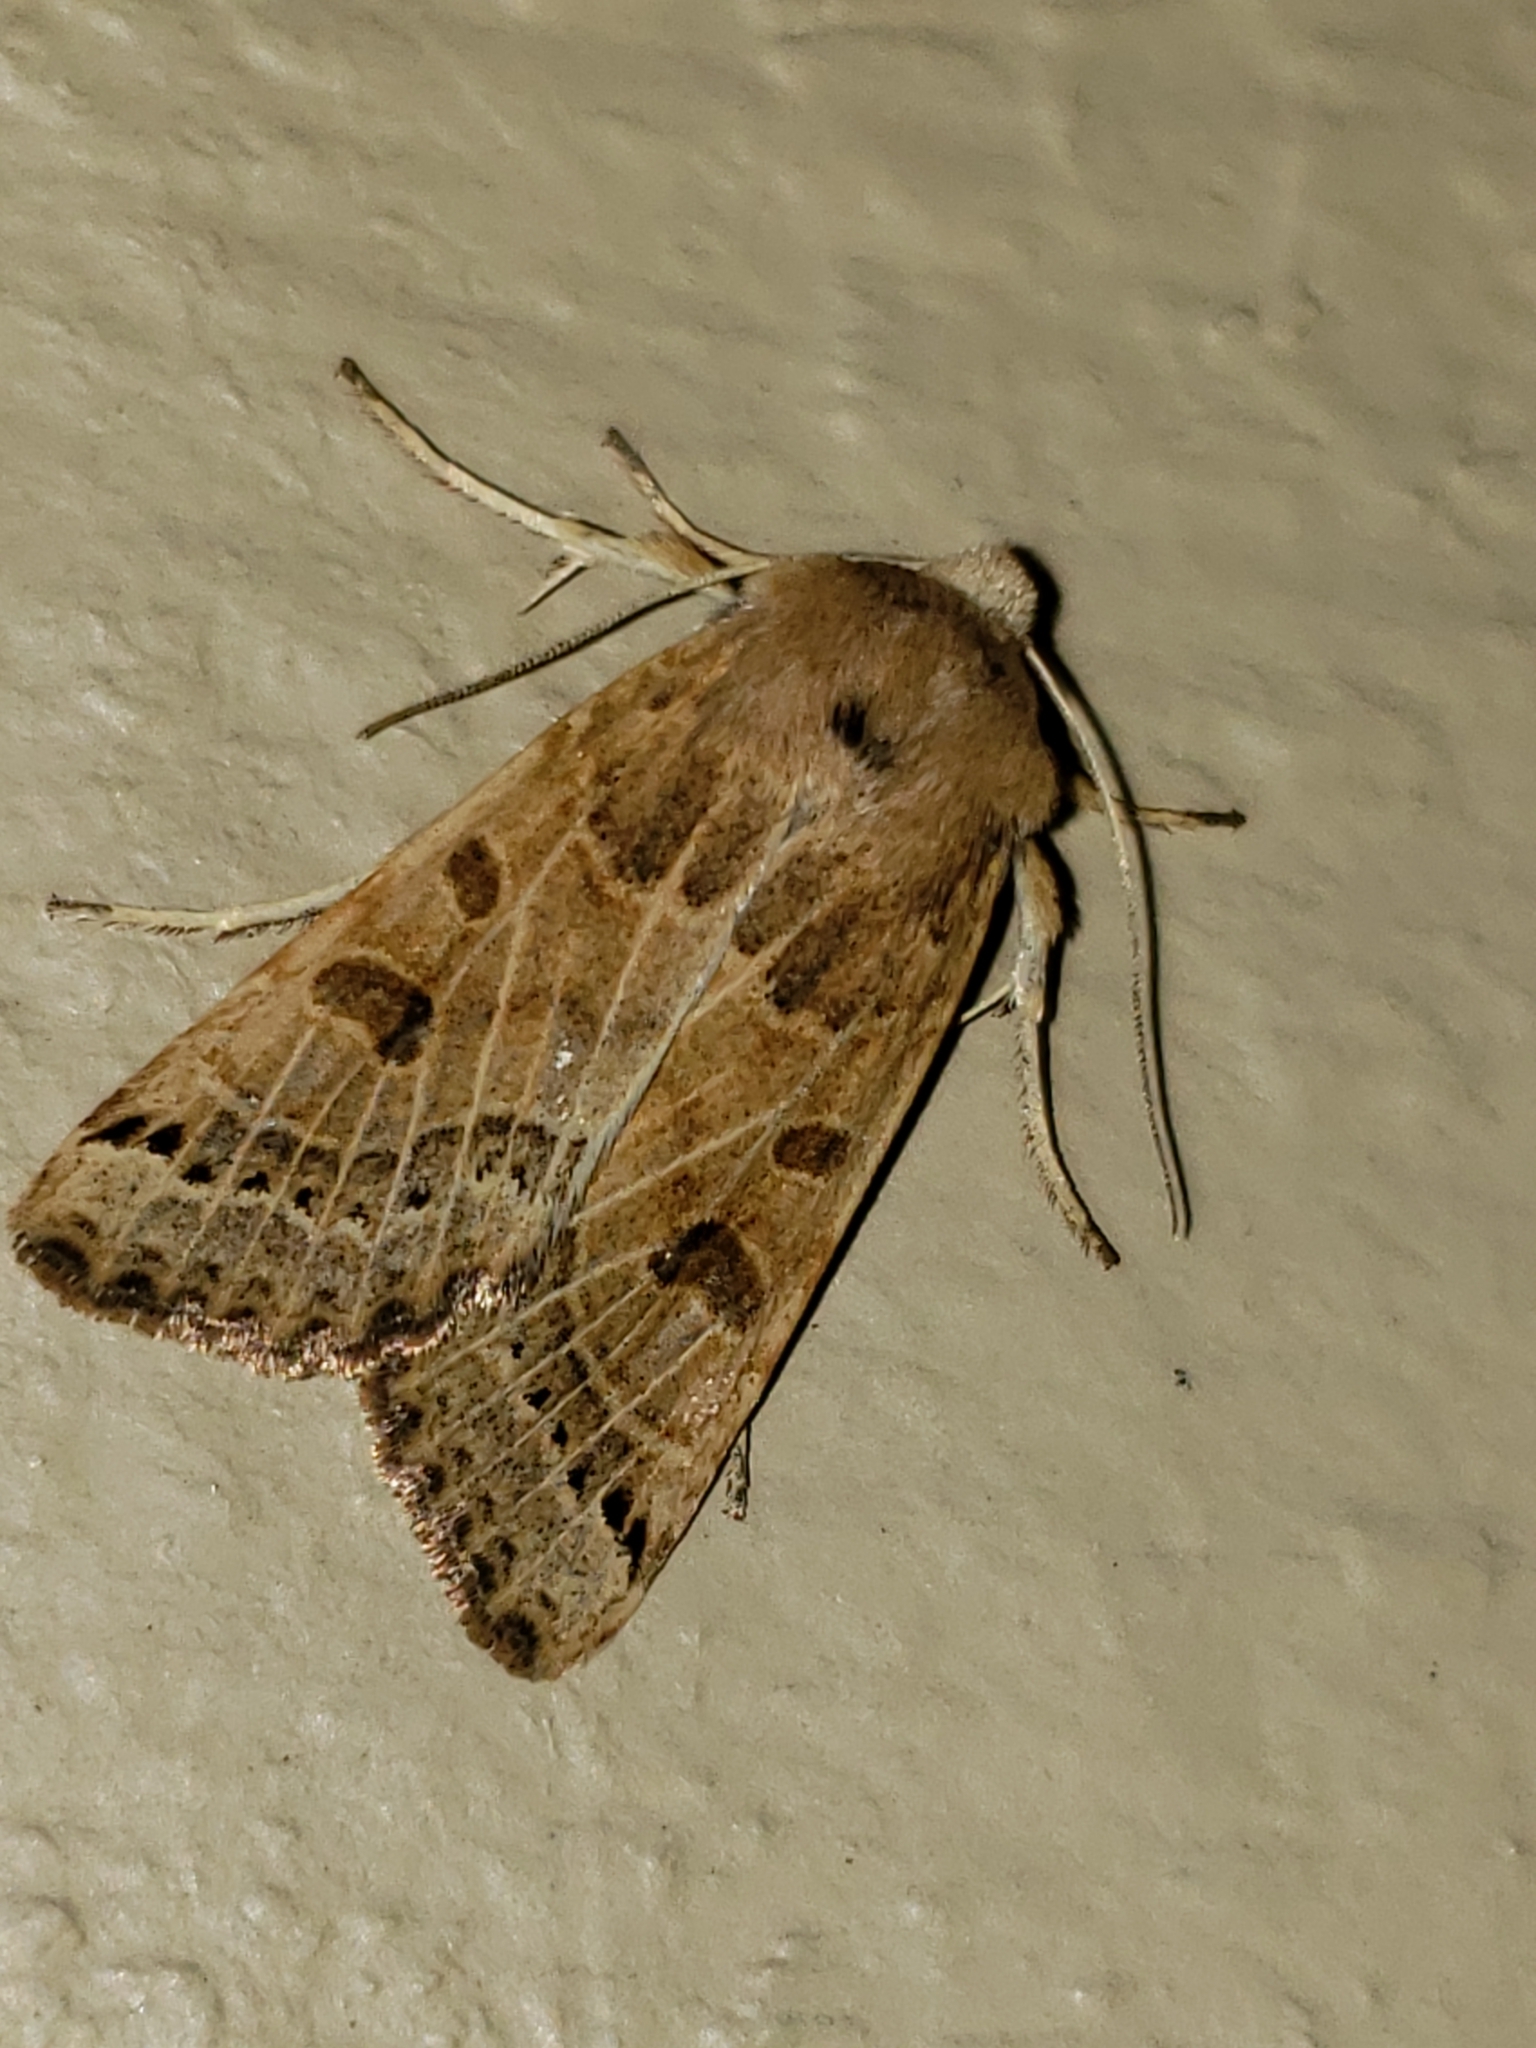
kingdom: Animalia
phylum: Arthropoda
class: Insecta
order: Lepidoptera
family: Noctuidae
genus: Agrochola
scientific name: Agrochola lunosa
